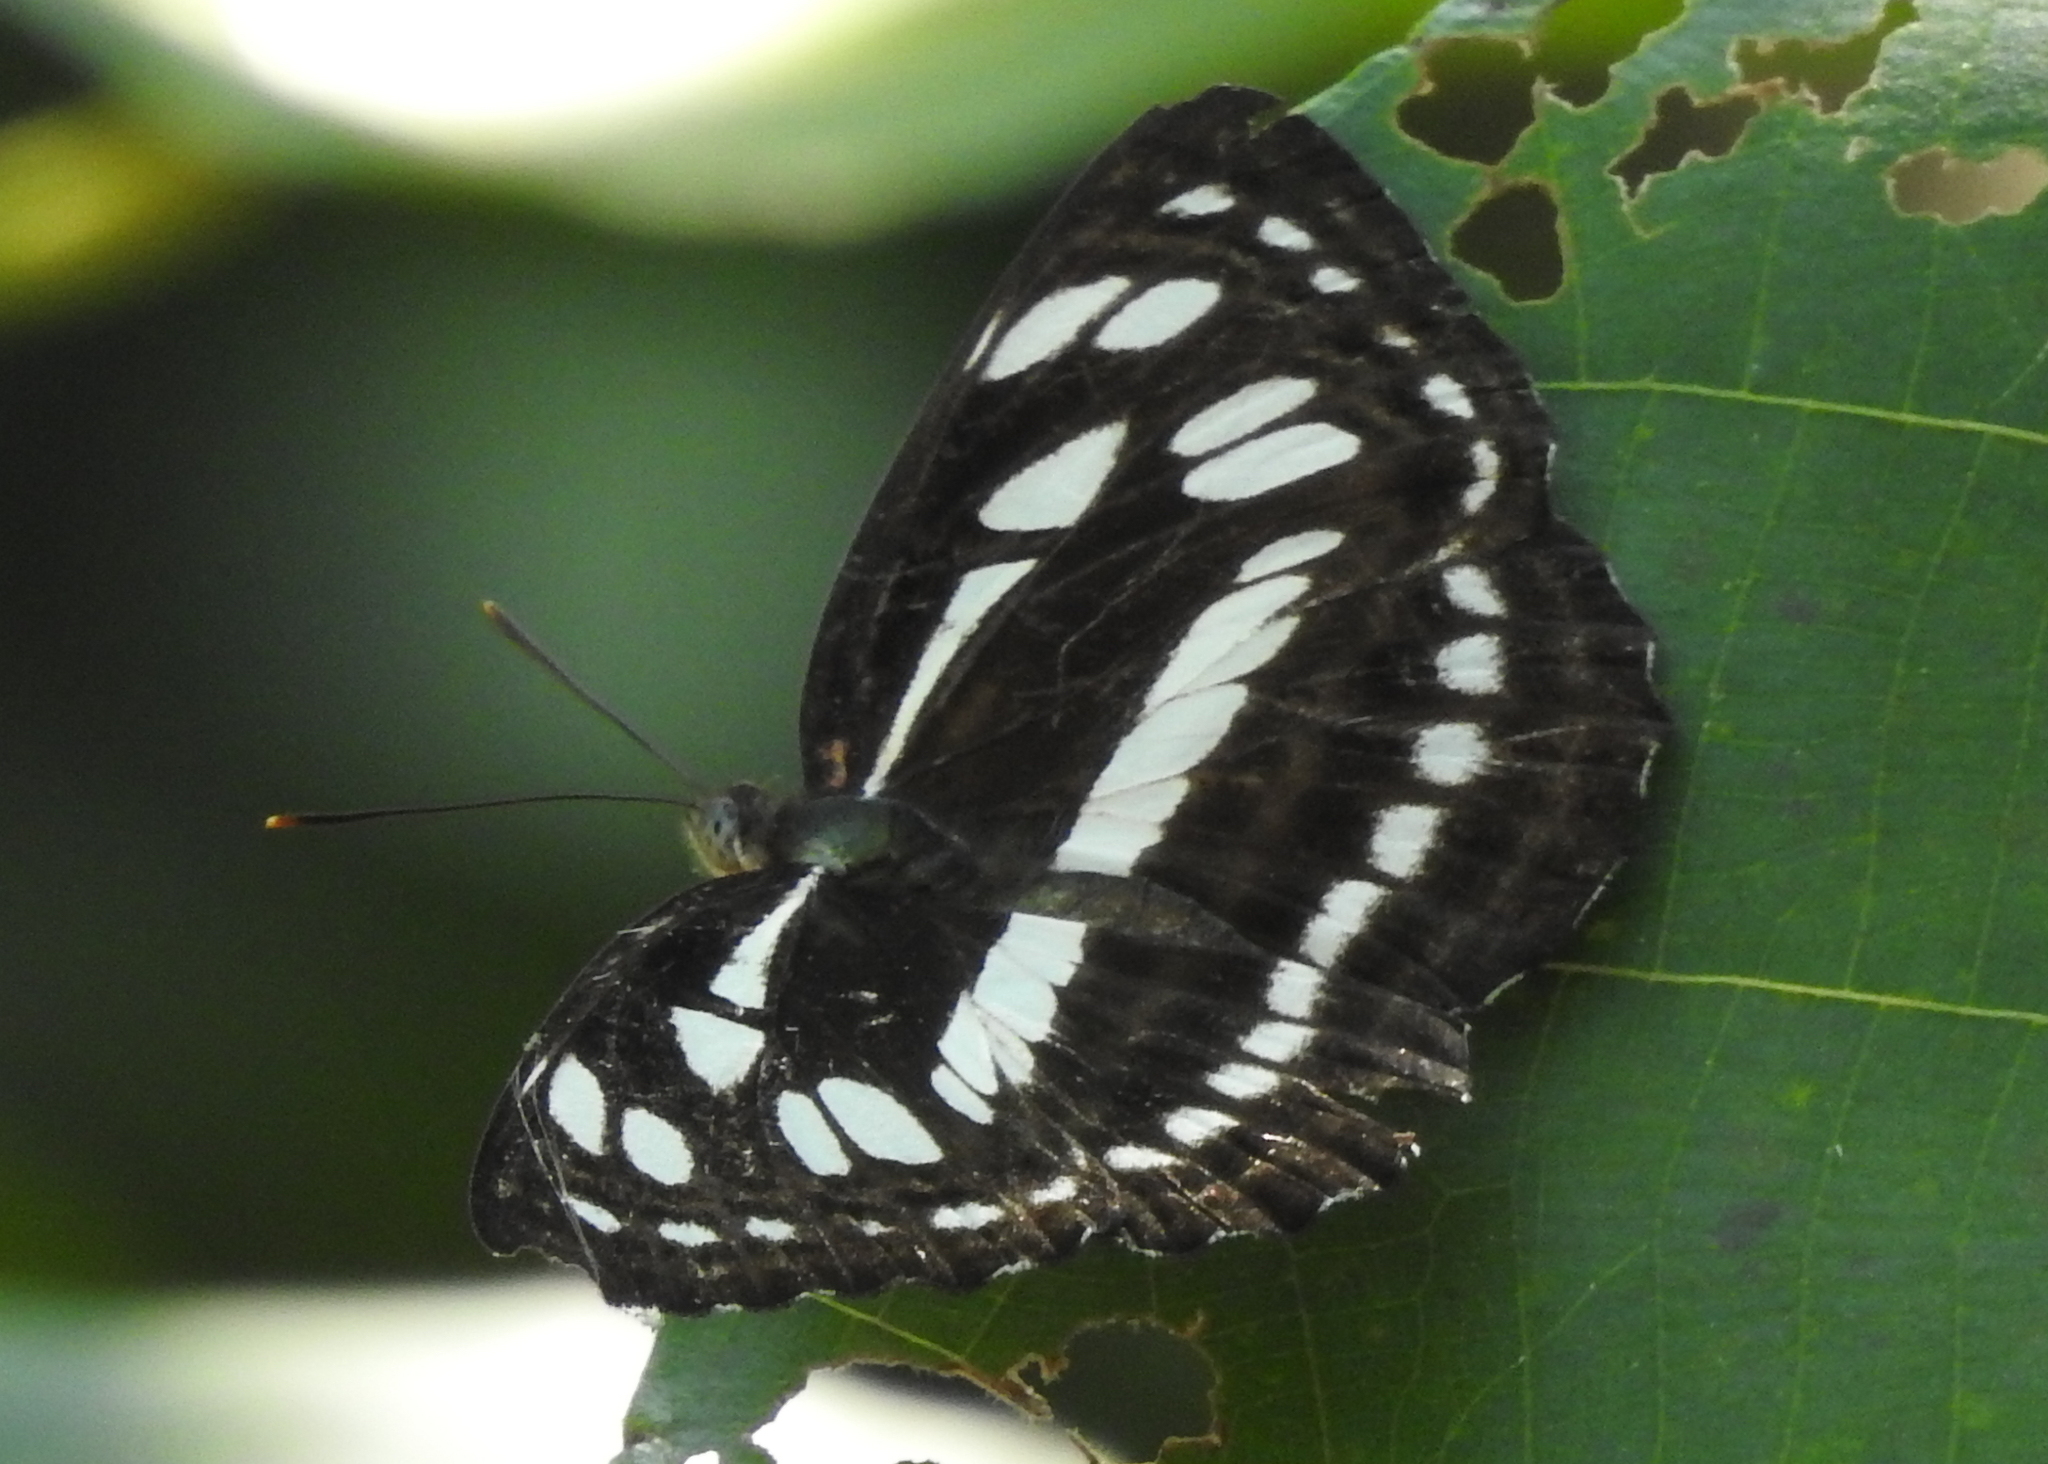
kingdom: Animalia
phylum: Arthropoda
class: Insecta
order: Lepidoptera
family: Nymphalidae
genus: Neptis
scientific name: Neptis hylas
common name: Common sailer
